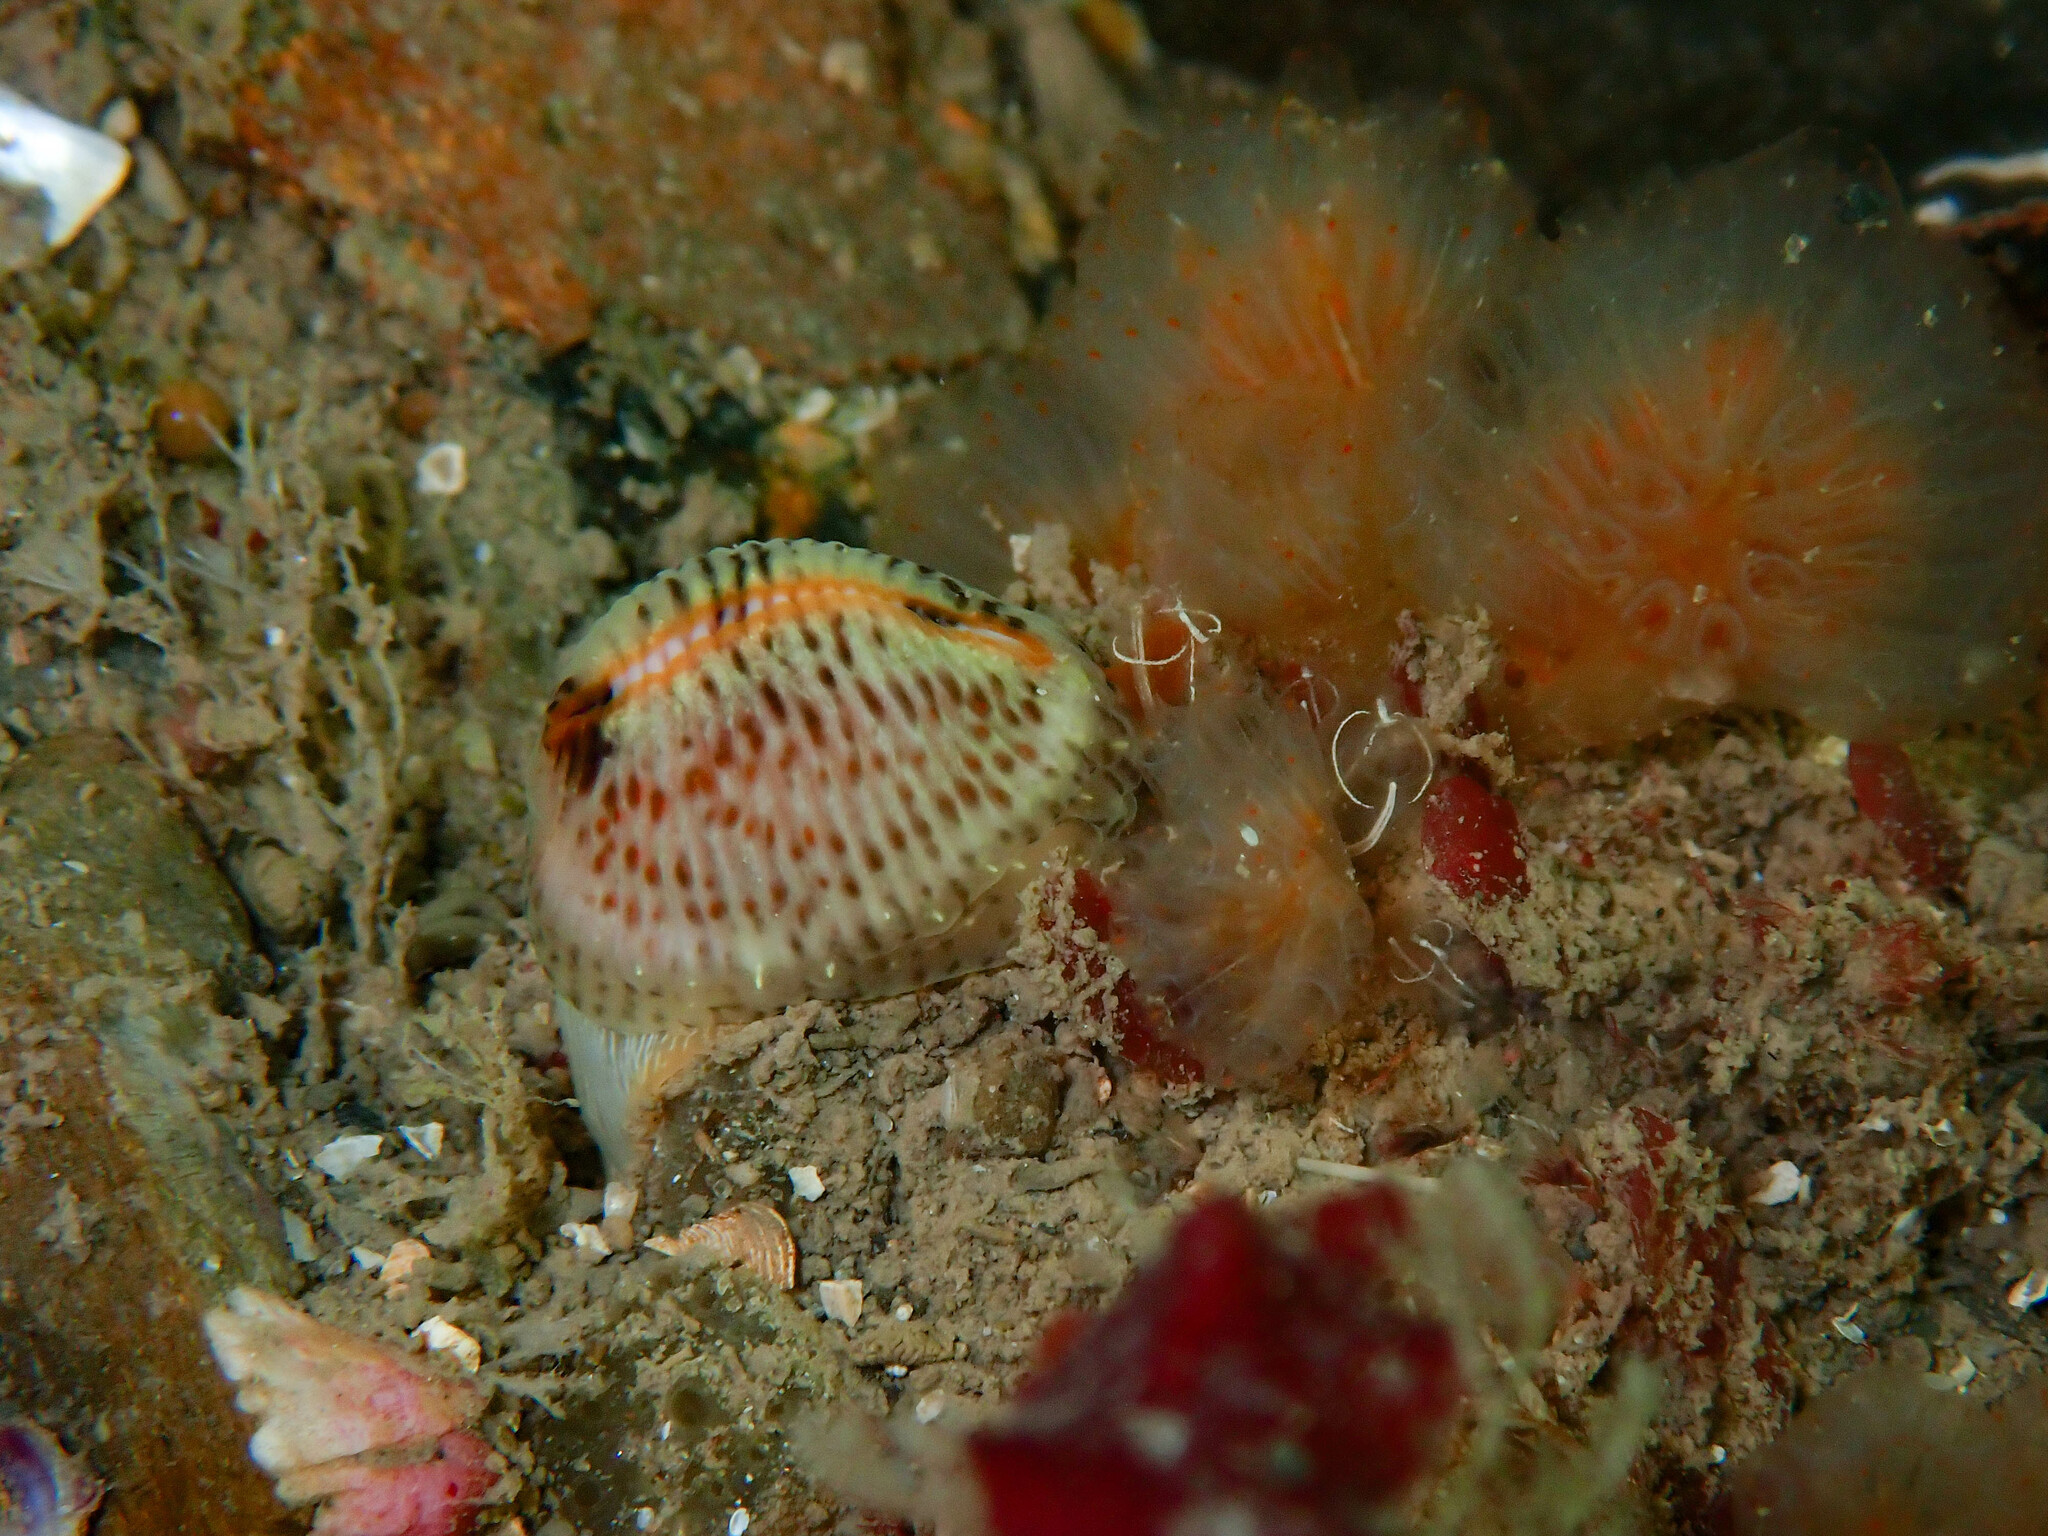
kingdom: Animalia
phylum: Mollusca
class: Gastropoda
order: Littorinimorpha
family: Triviidae
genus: Trivia
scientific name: Trivia monacha
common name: Spotted cowrie
